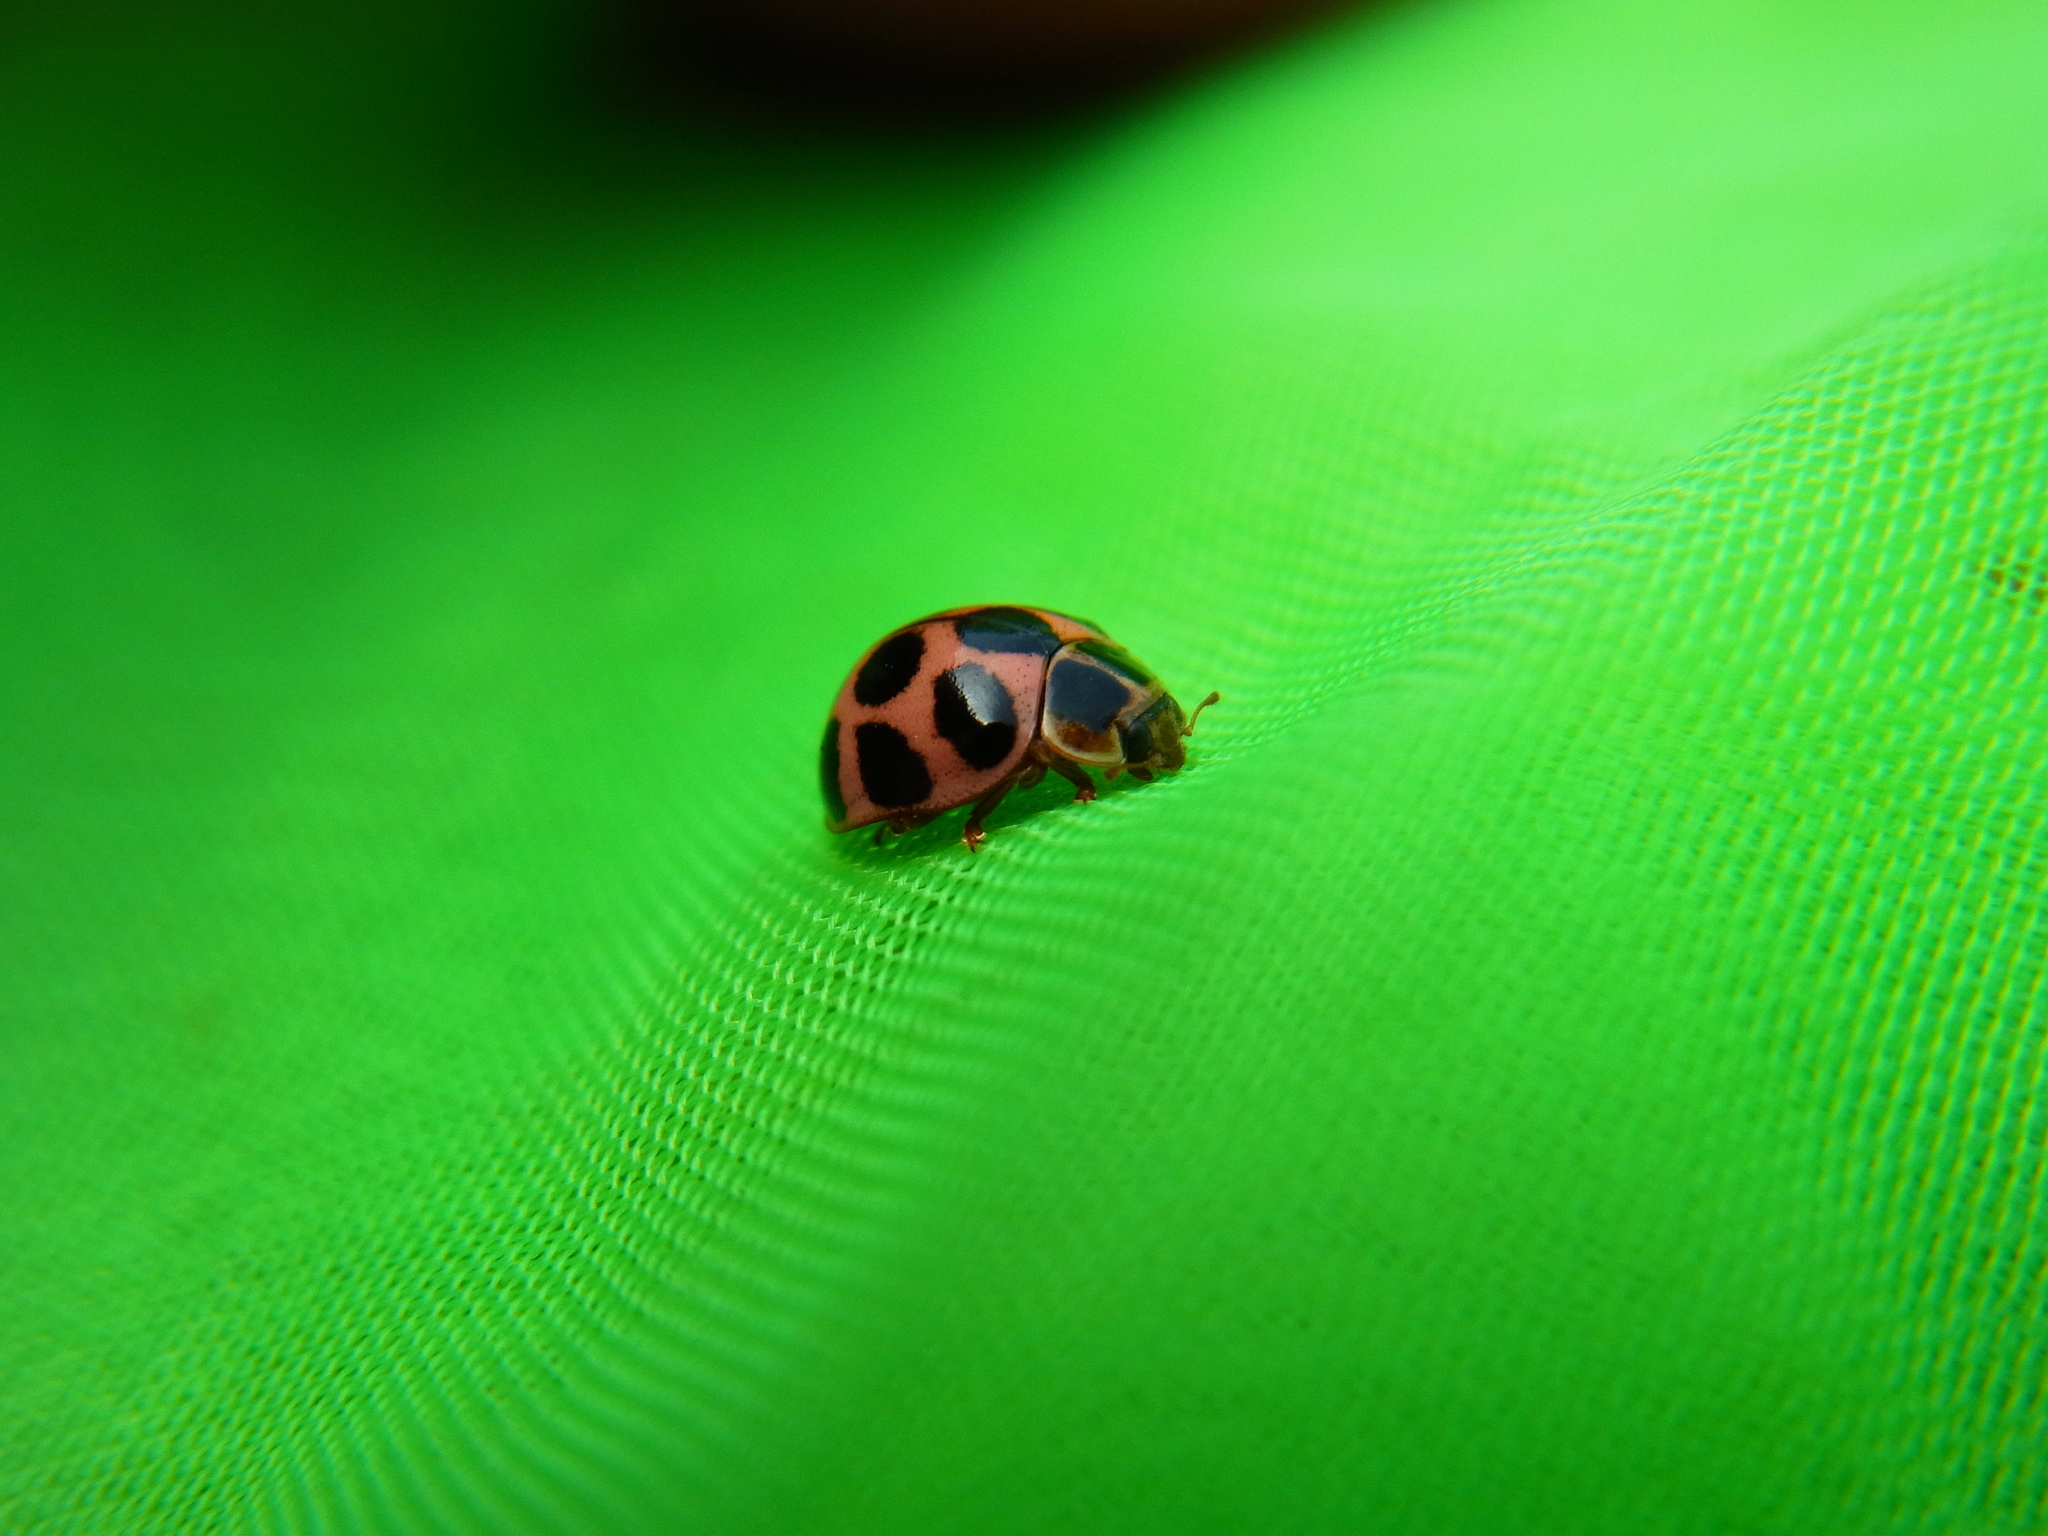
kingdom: Animalia
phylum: Arthropoda
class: Insecta
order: Coleoptera
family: Coccinellidae
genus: Calvia
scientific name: Calvia quatuordecimguttata
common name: Cream-spot ladybird
